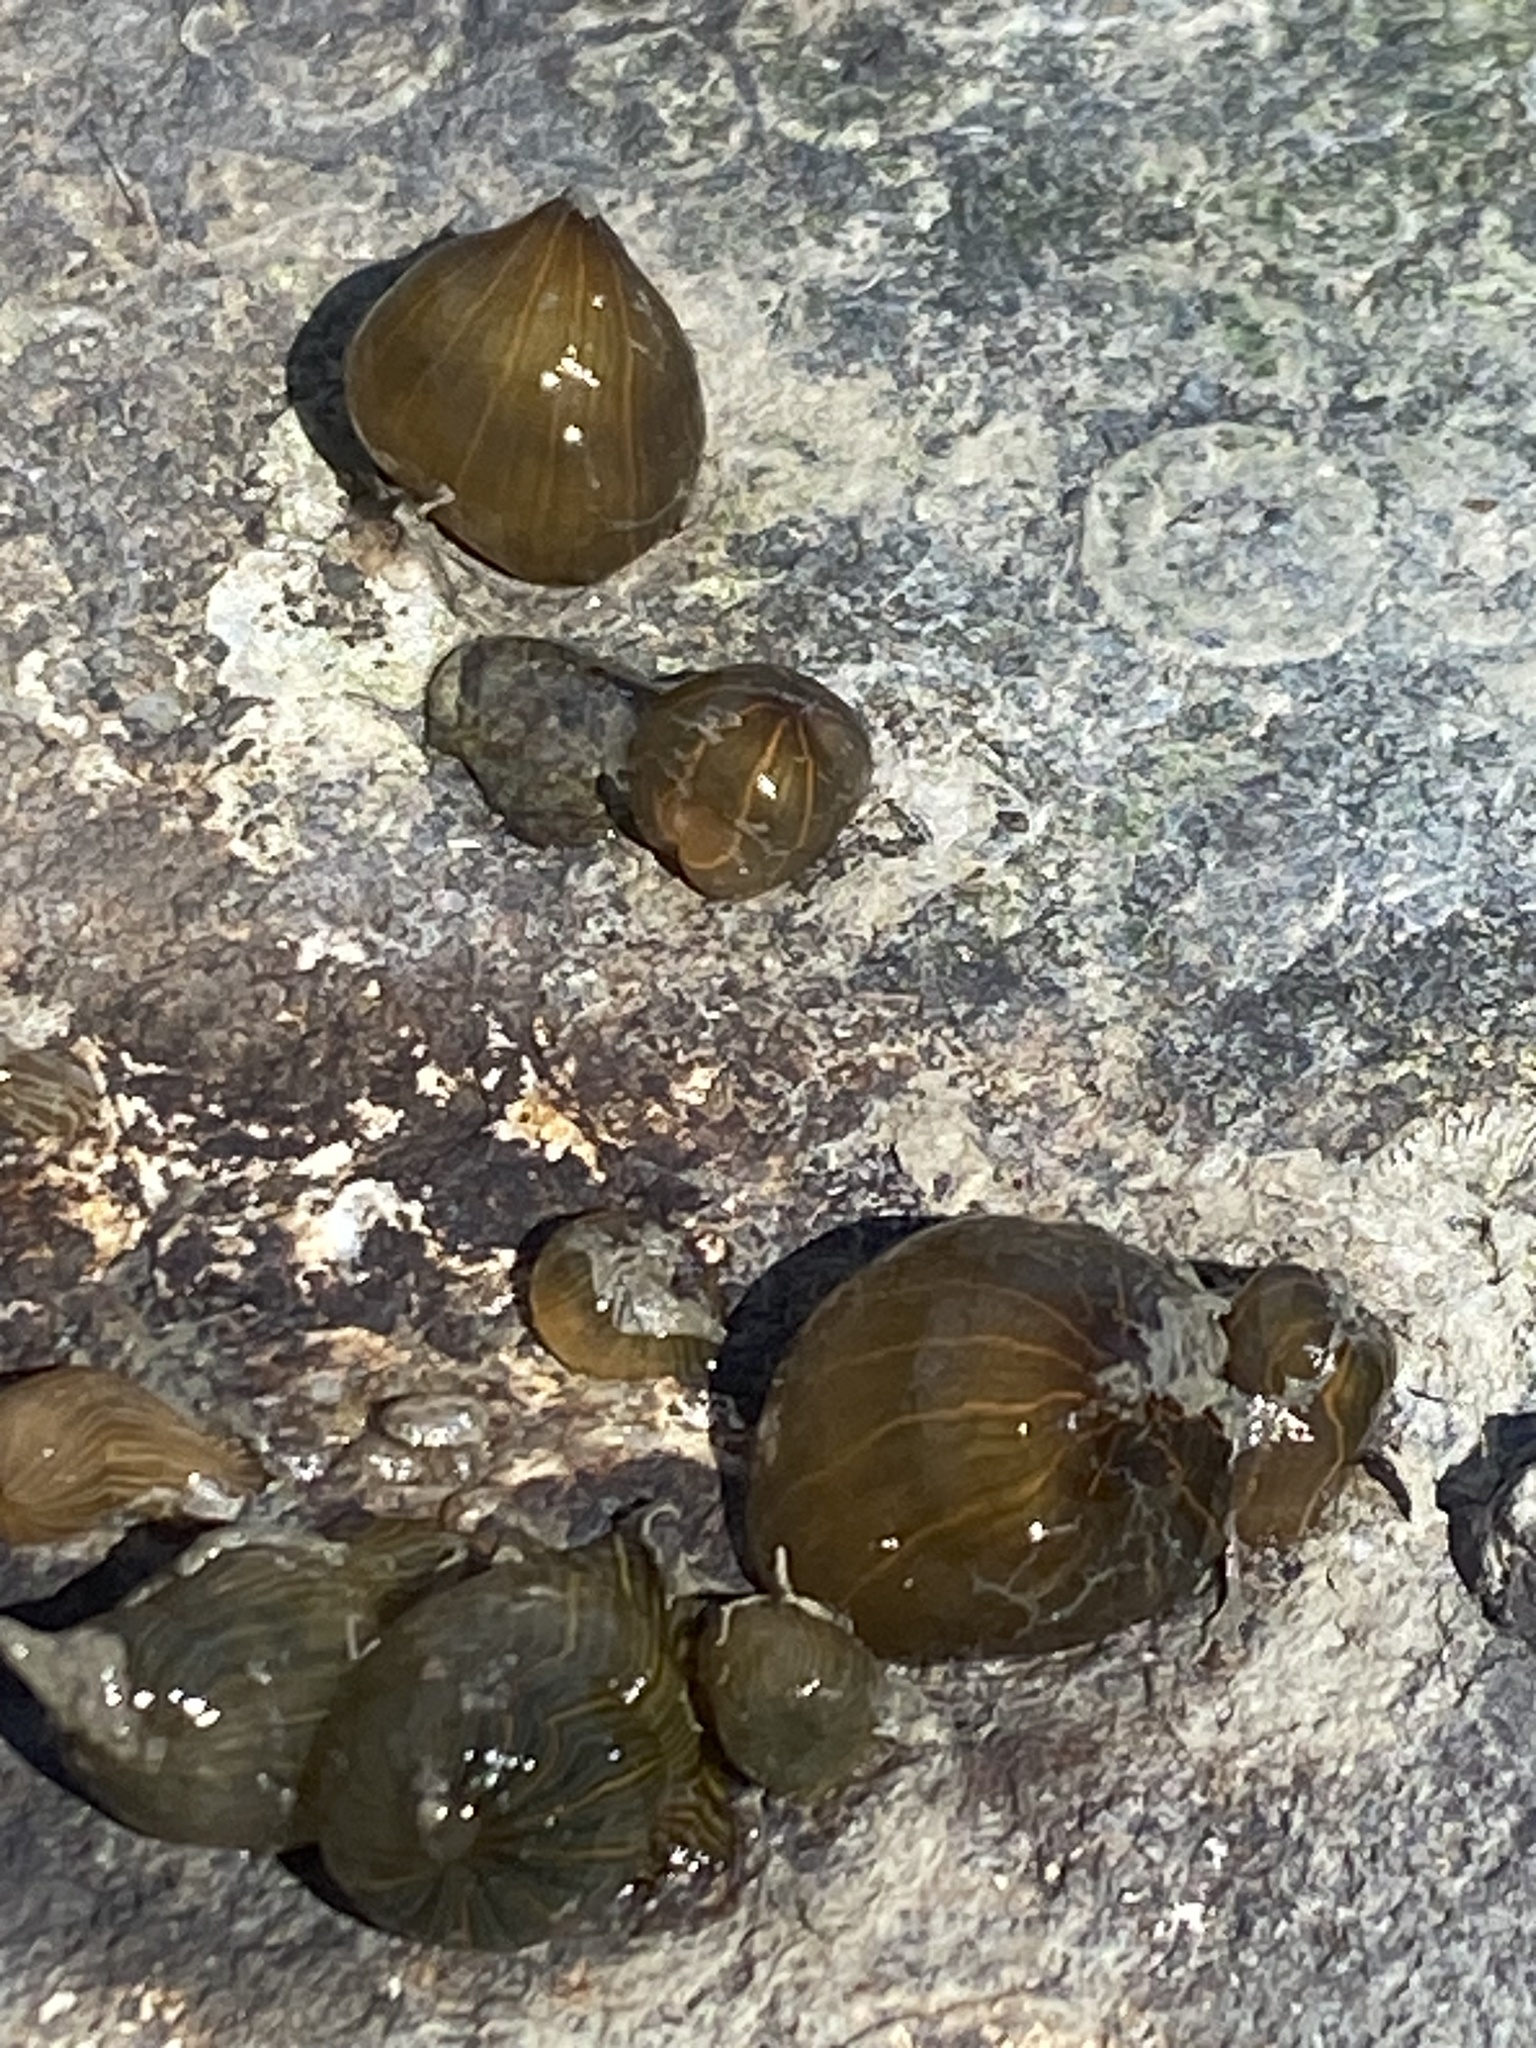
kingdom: Animalia
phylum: Cnidaria
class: Anthozoa
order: Actiniaria
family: Diadumenidae
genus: Diadumene
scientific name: Diadumene lineata
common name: Orange-striped anemone
